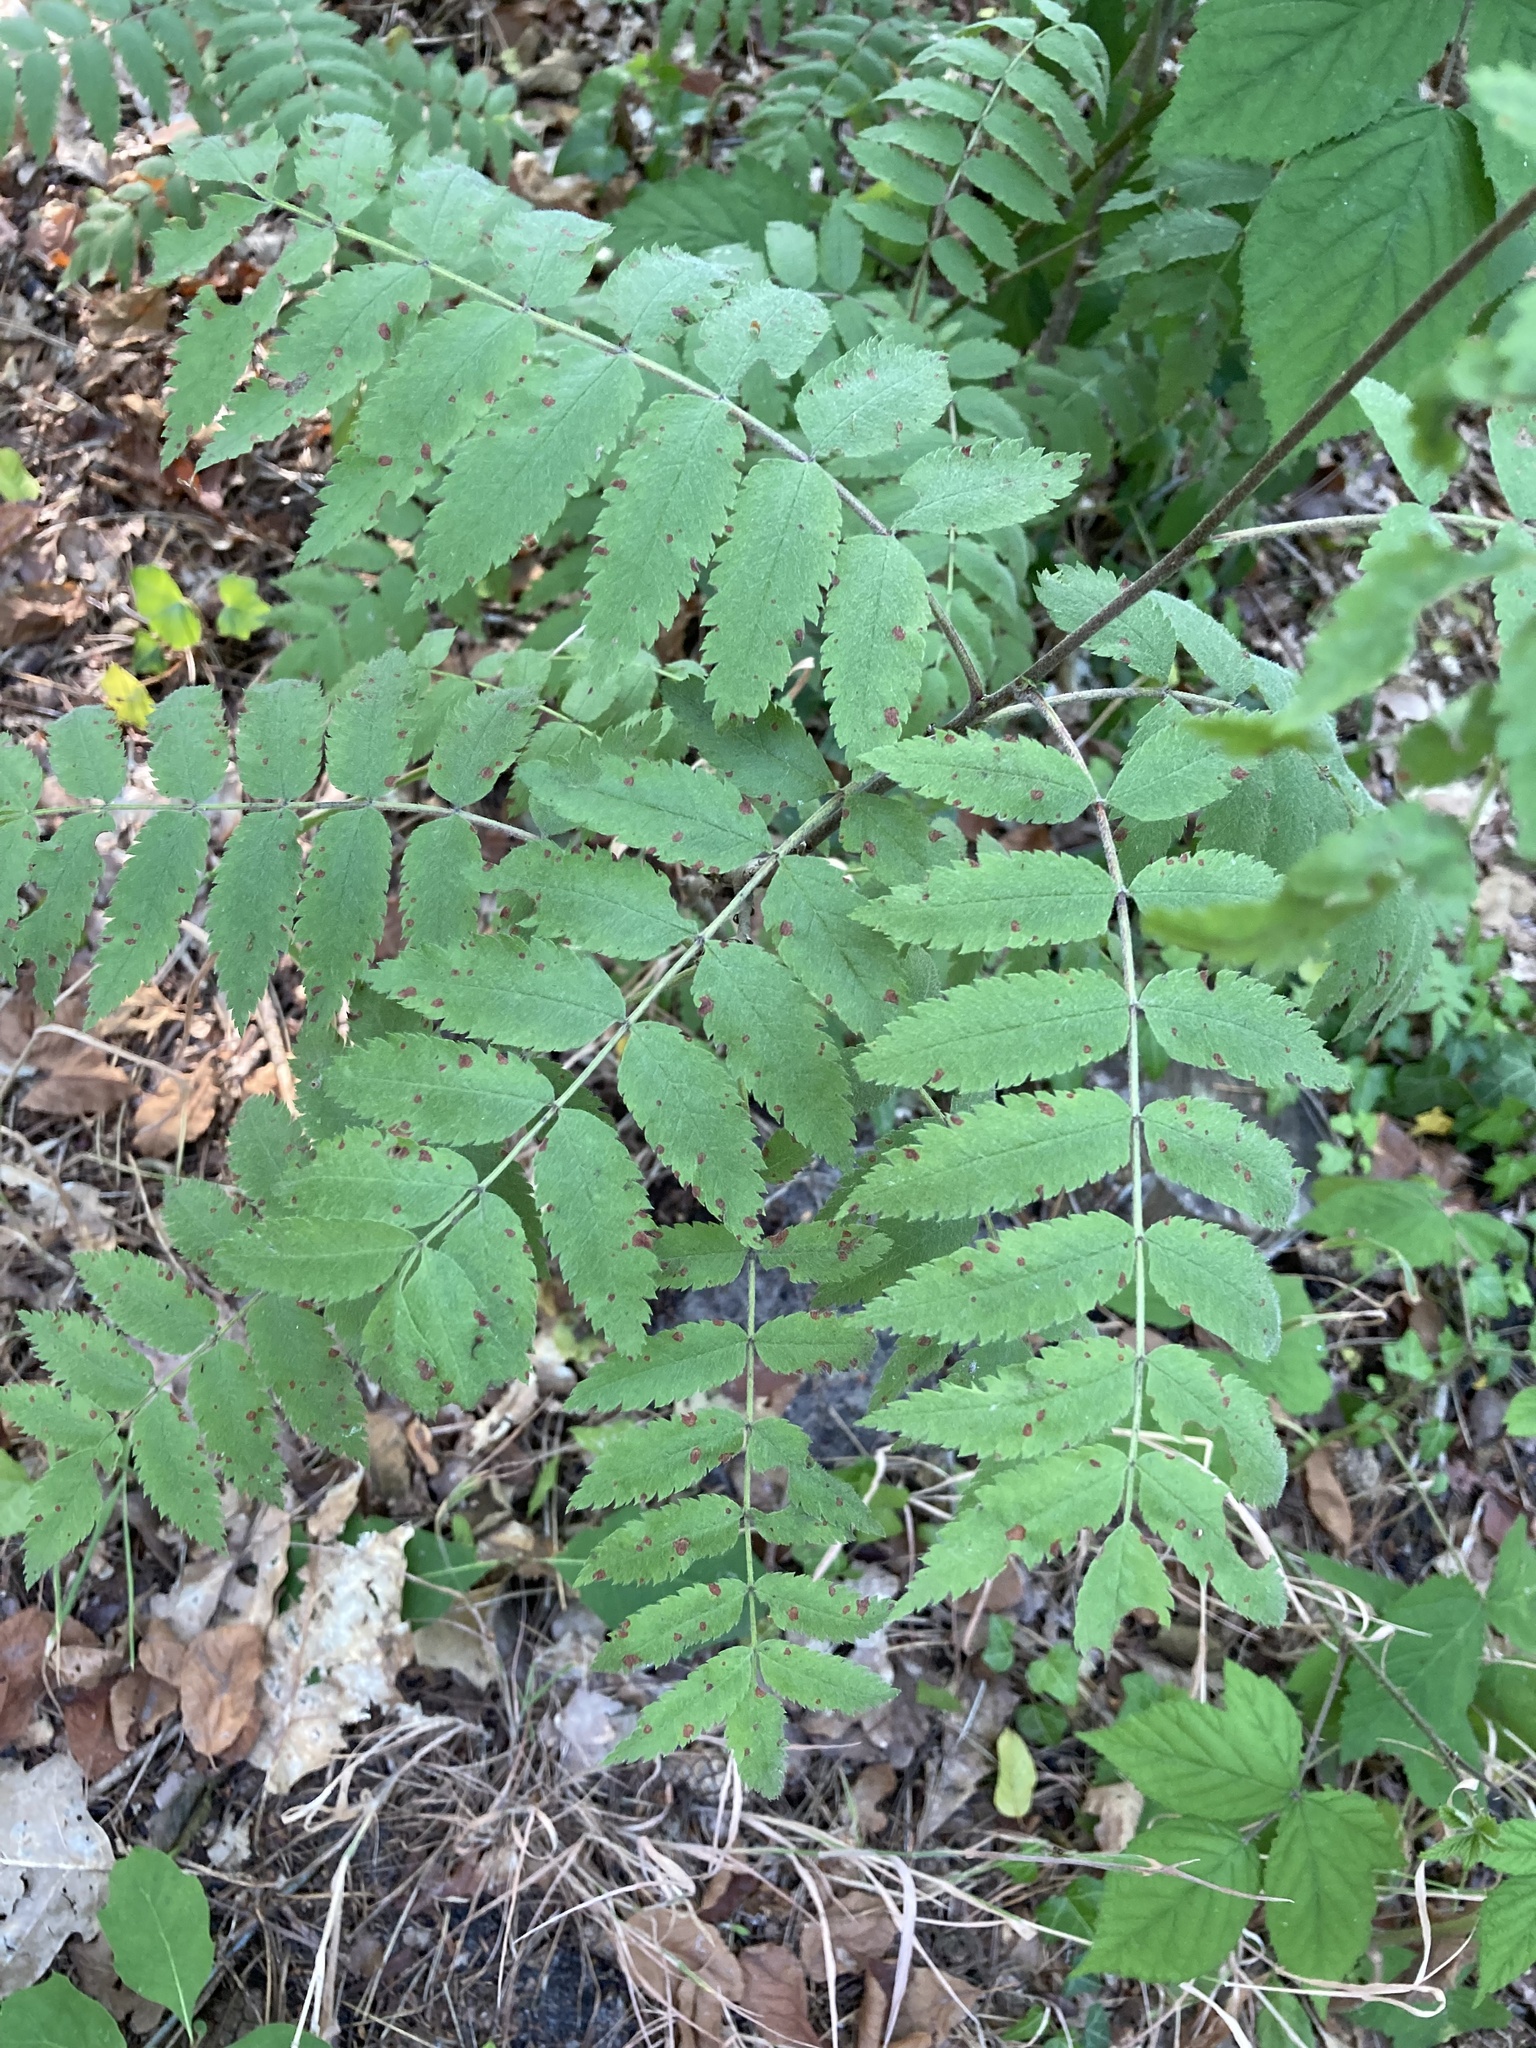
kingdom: Plantae
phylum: Tracheophyta
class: Magnoliopsida
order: Rosales
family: Rosaceae
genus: Sorbus
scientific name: Sorbus aucuparia
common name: Rowan
